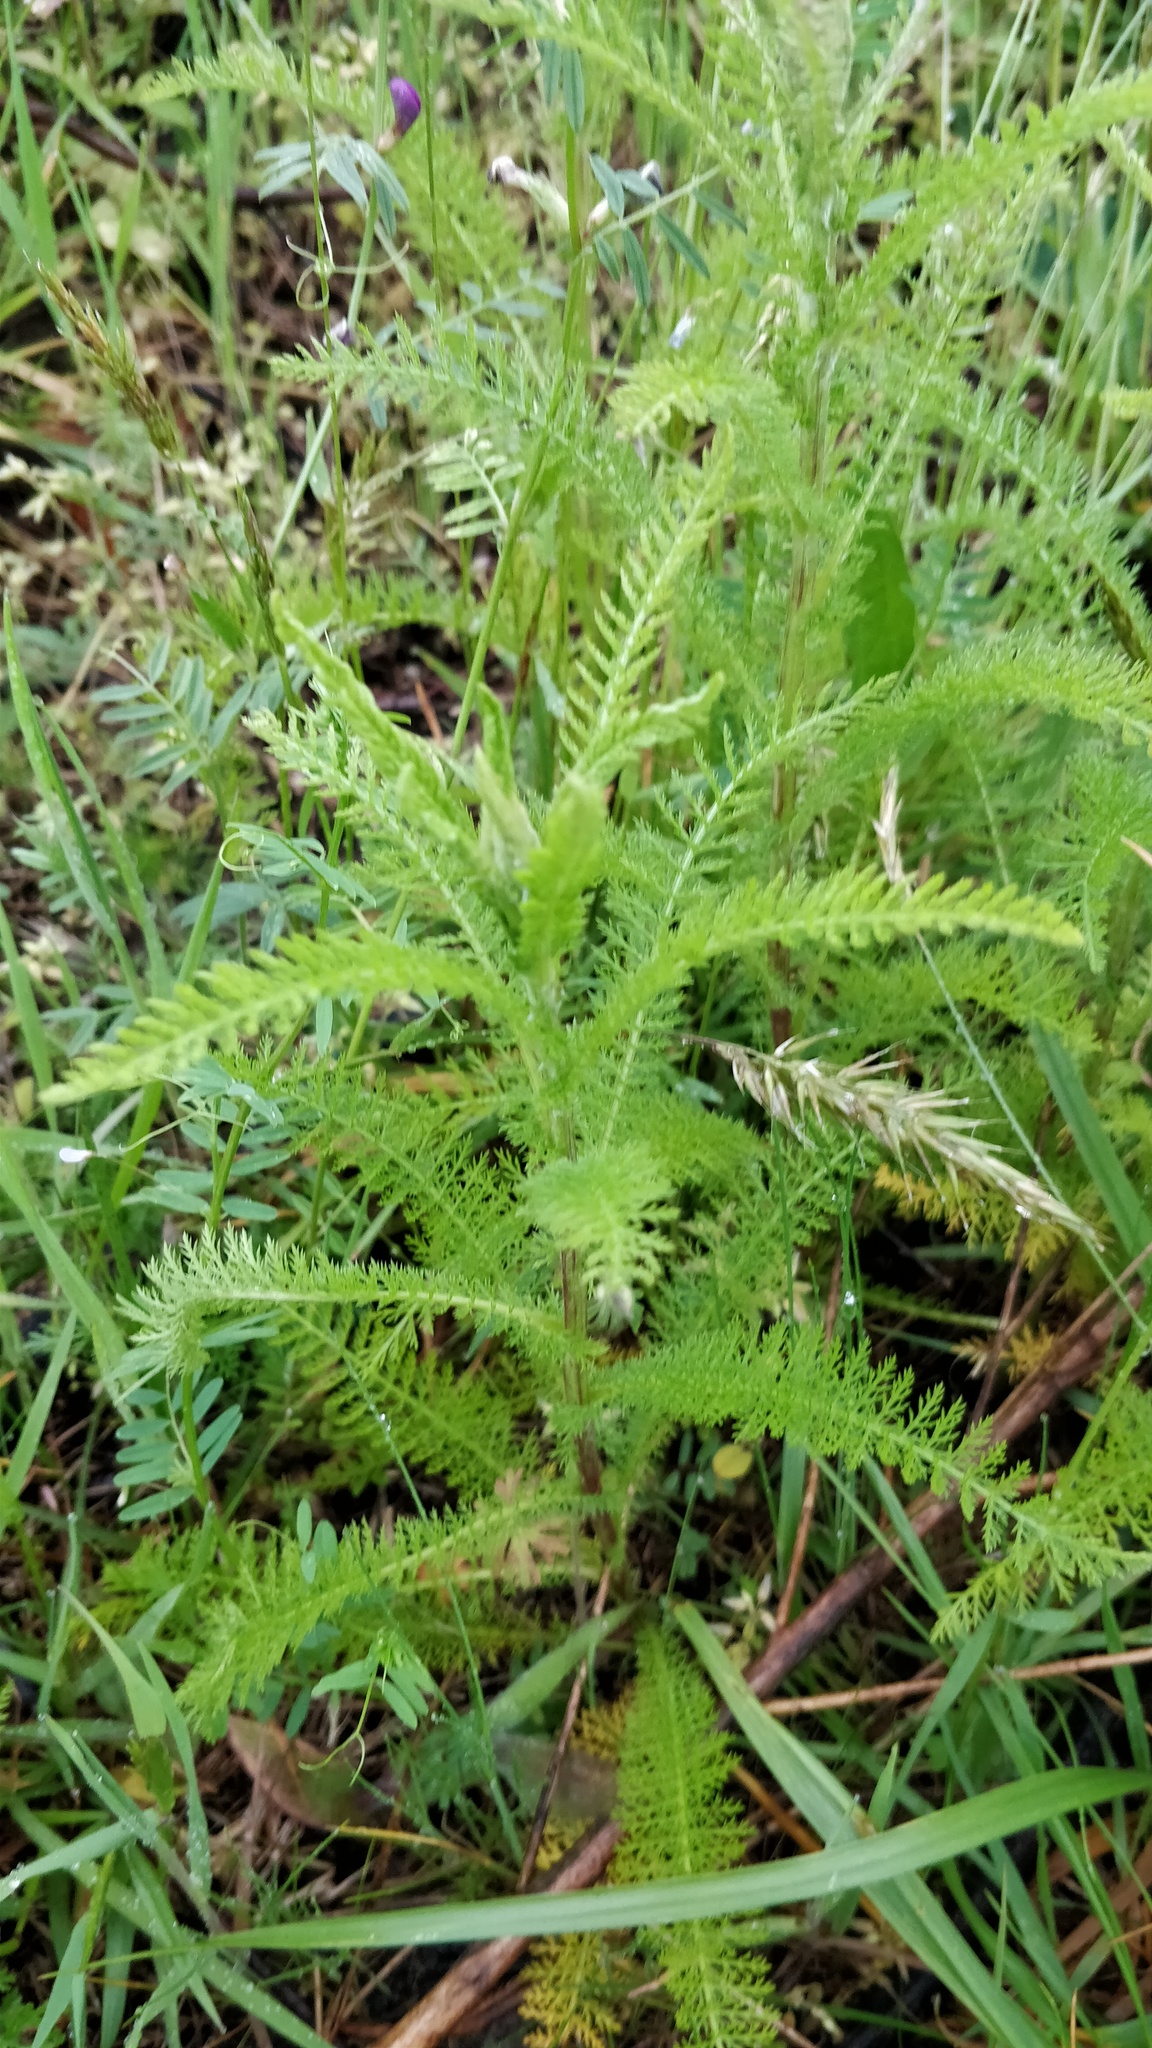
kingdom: Plantae
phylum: Tracheophyta
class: Magnoliopsida
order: Asterales
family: Asteraceae
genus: Achillea
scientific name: Achillea millefolium
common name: Yarrow
